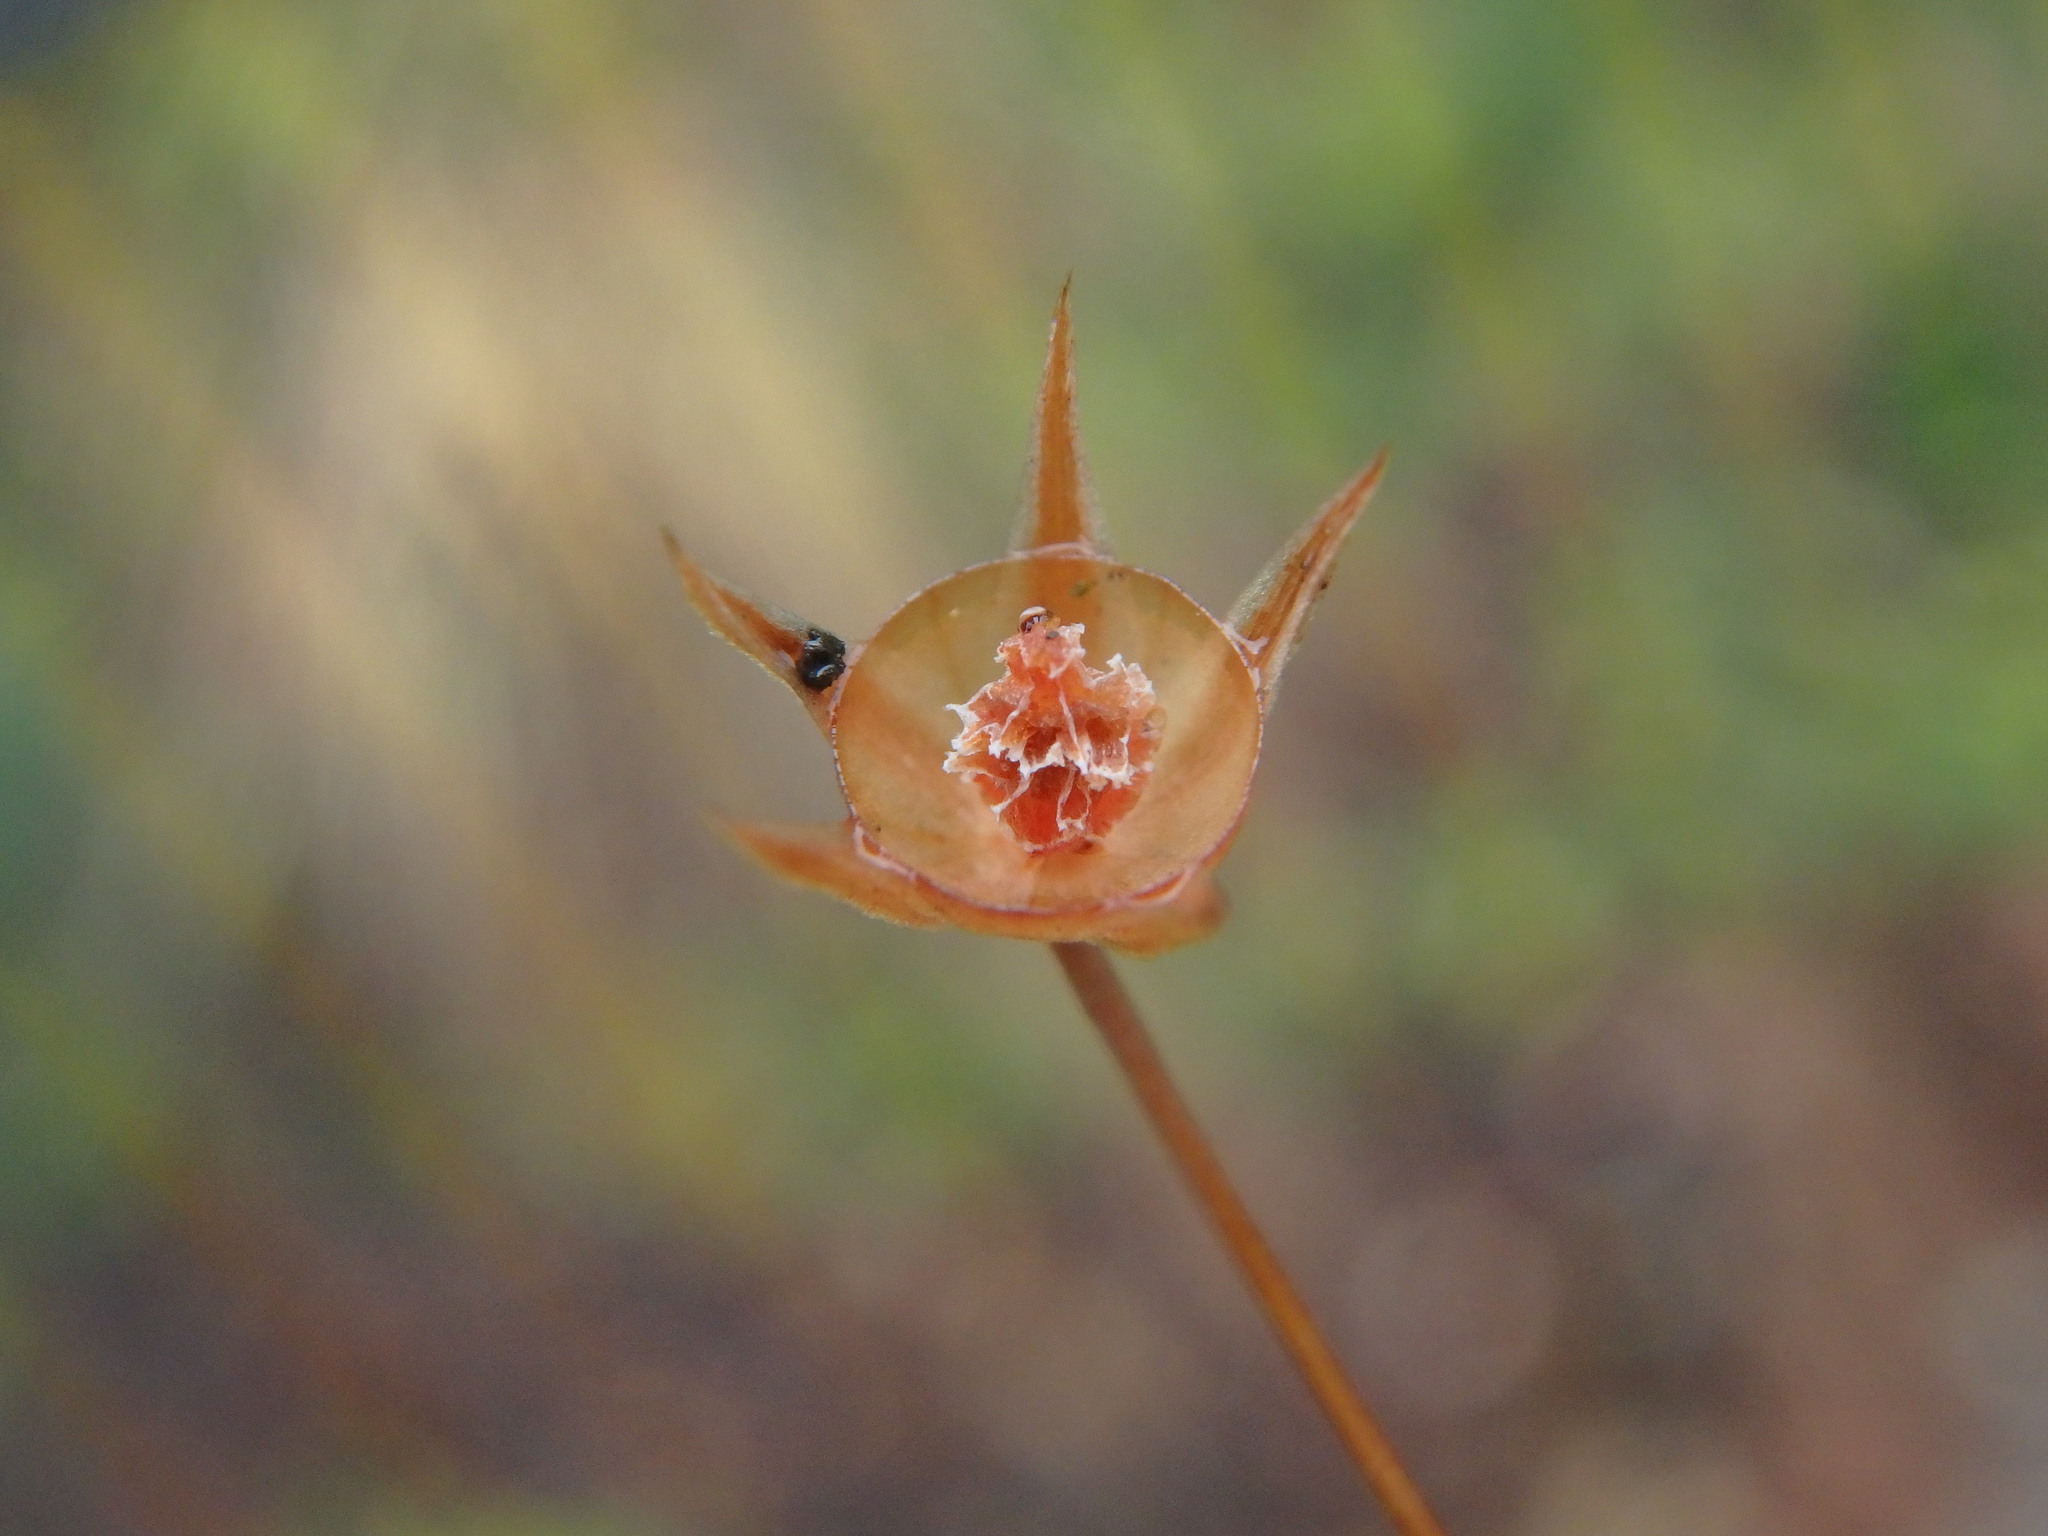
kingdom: Plantae
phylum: Tracheophyta
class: Magnoliopsida
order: Ericales
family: Primulaceae
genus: Lysimachia
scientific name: Lysimachia arvensis
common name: Scarlet pimpernel
